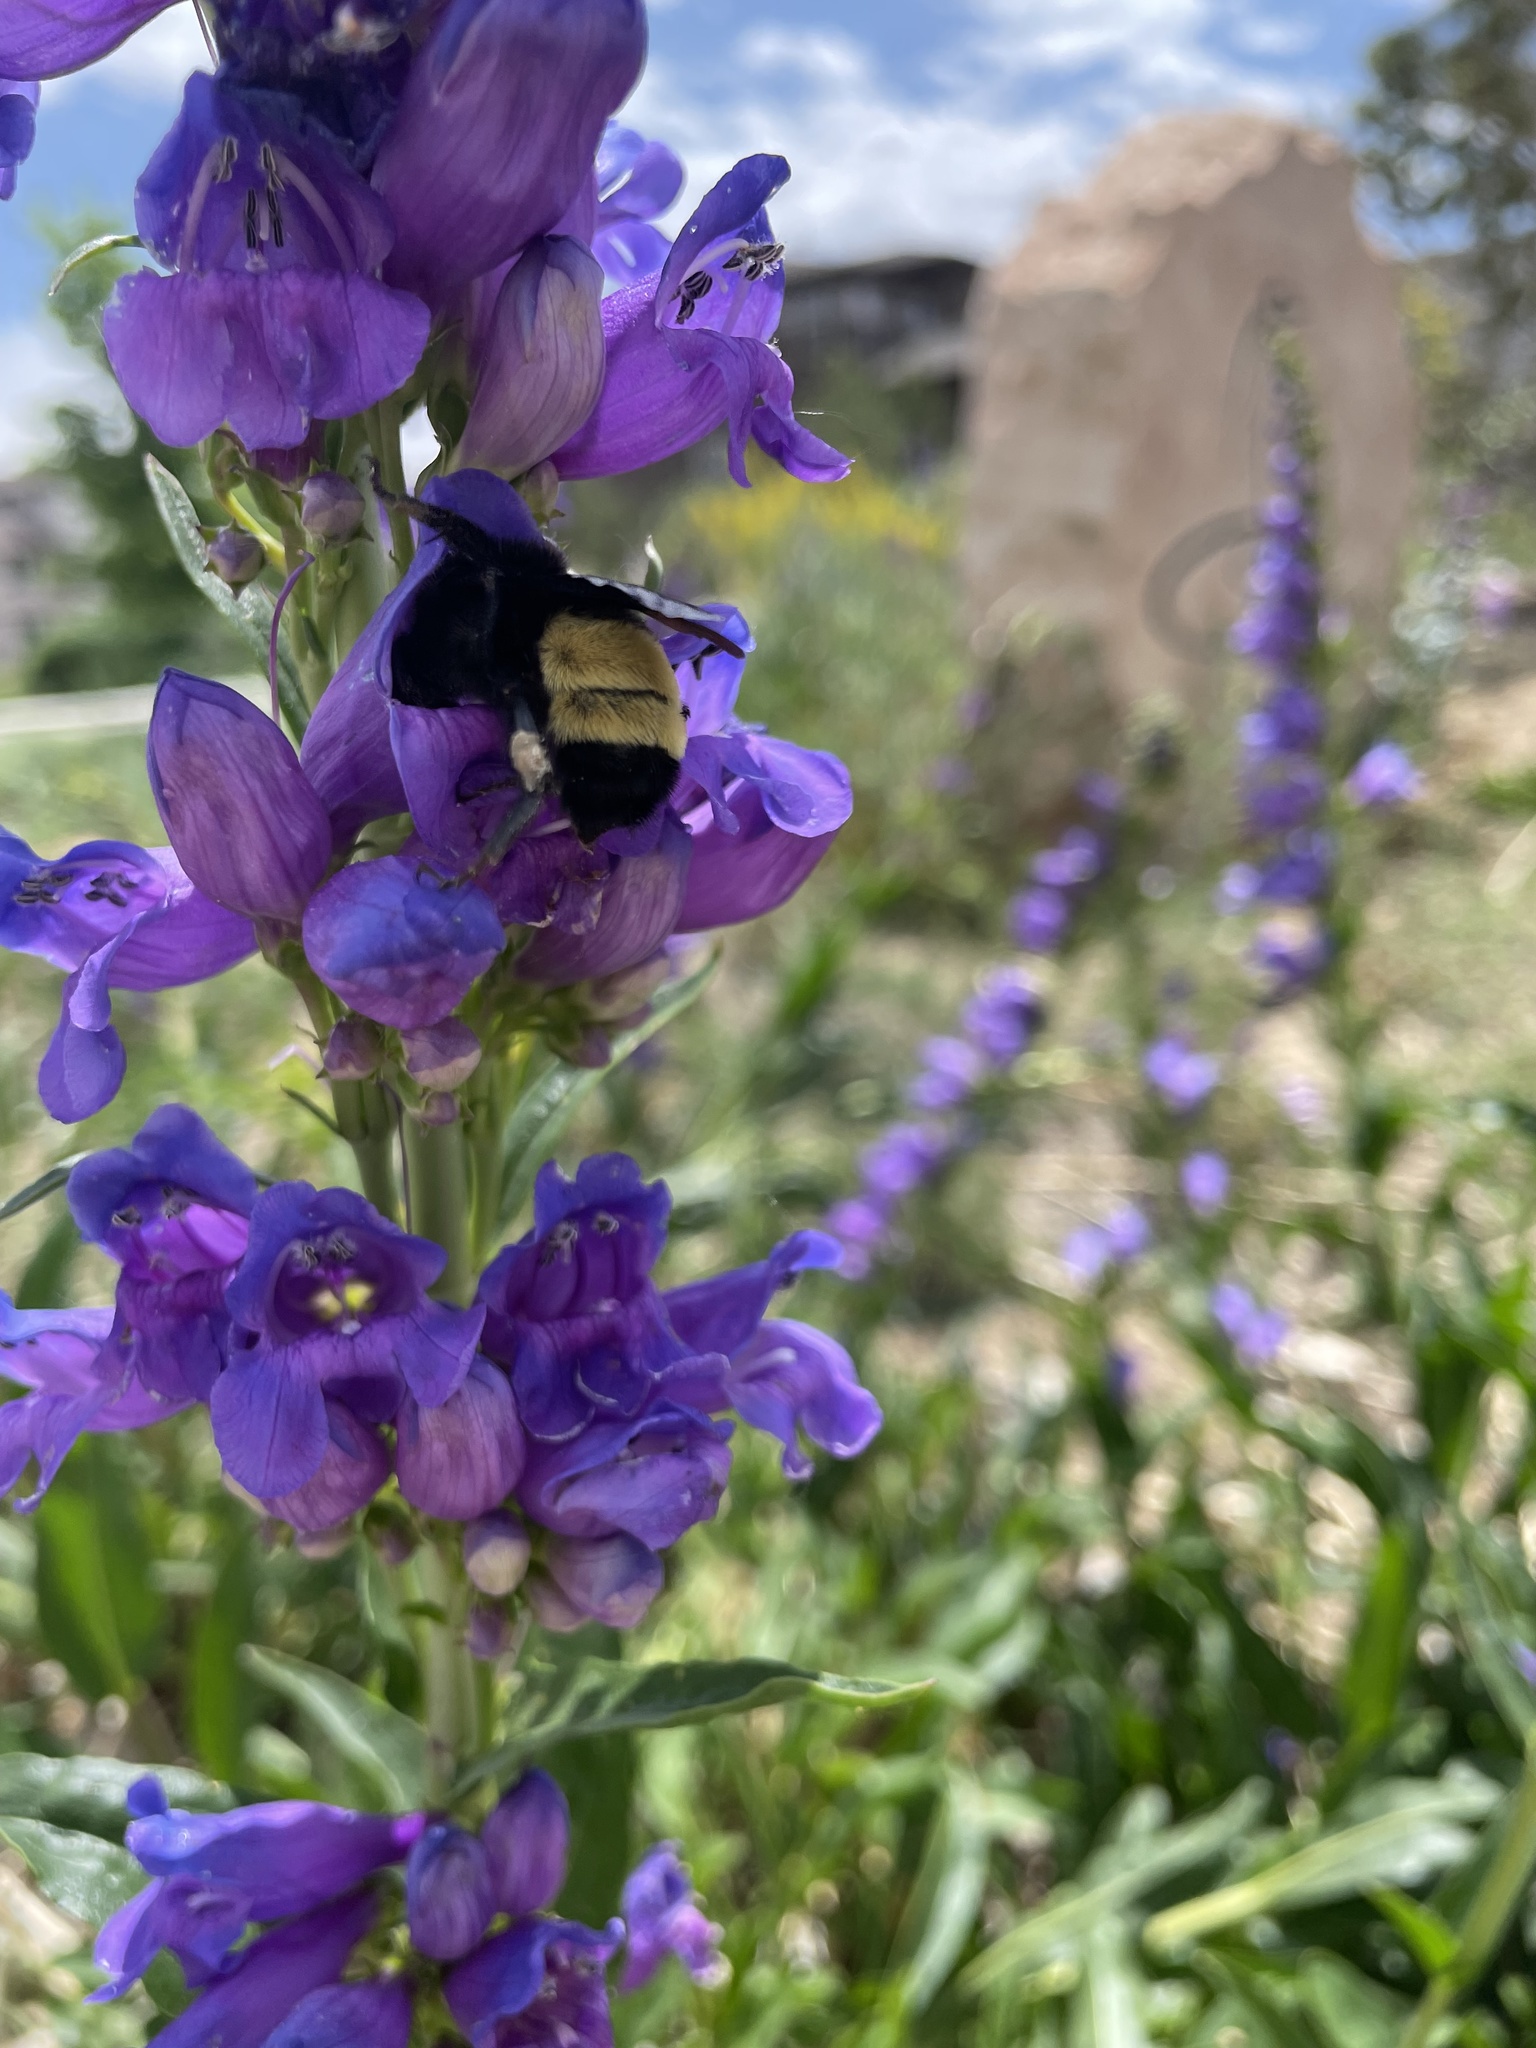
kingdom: Animalia
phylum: Arthropoda
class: Insecta
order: Hymenoptera
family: Apidae
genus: Bombus
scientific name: Bombus pensylvanicus
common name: Bumble bee
